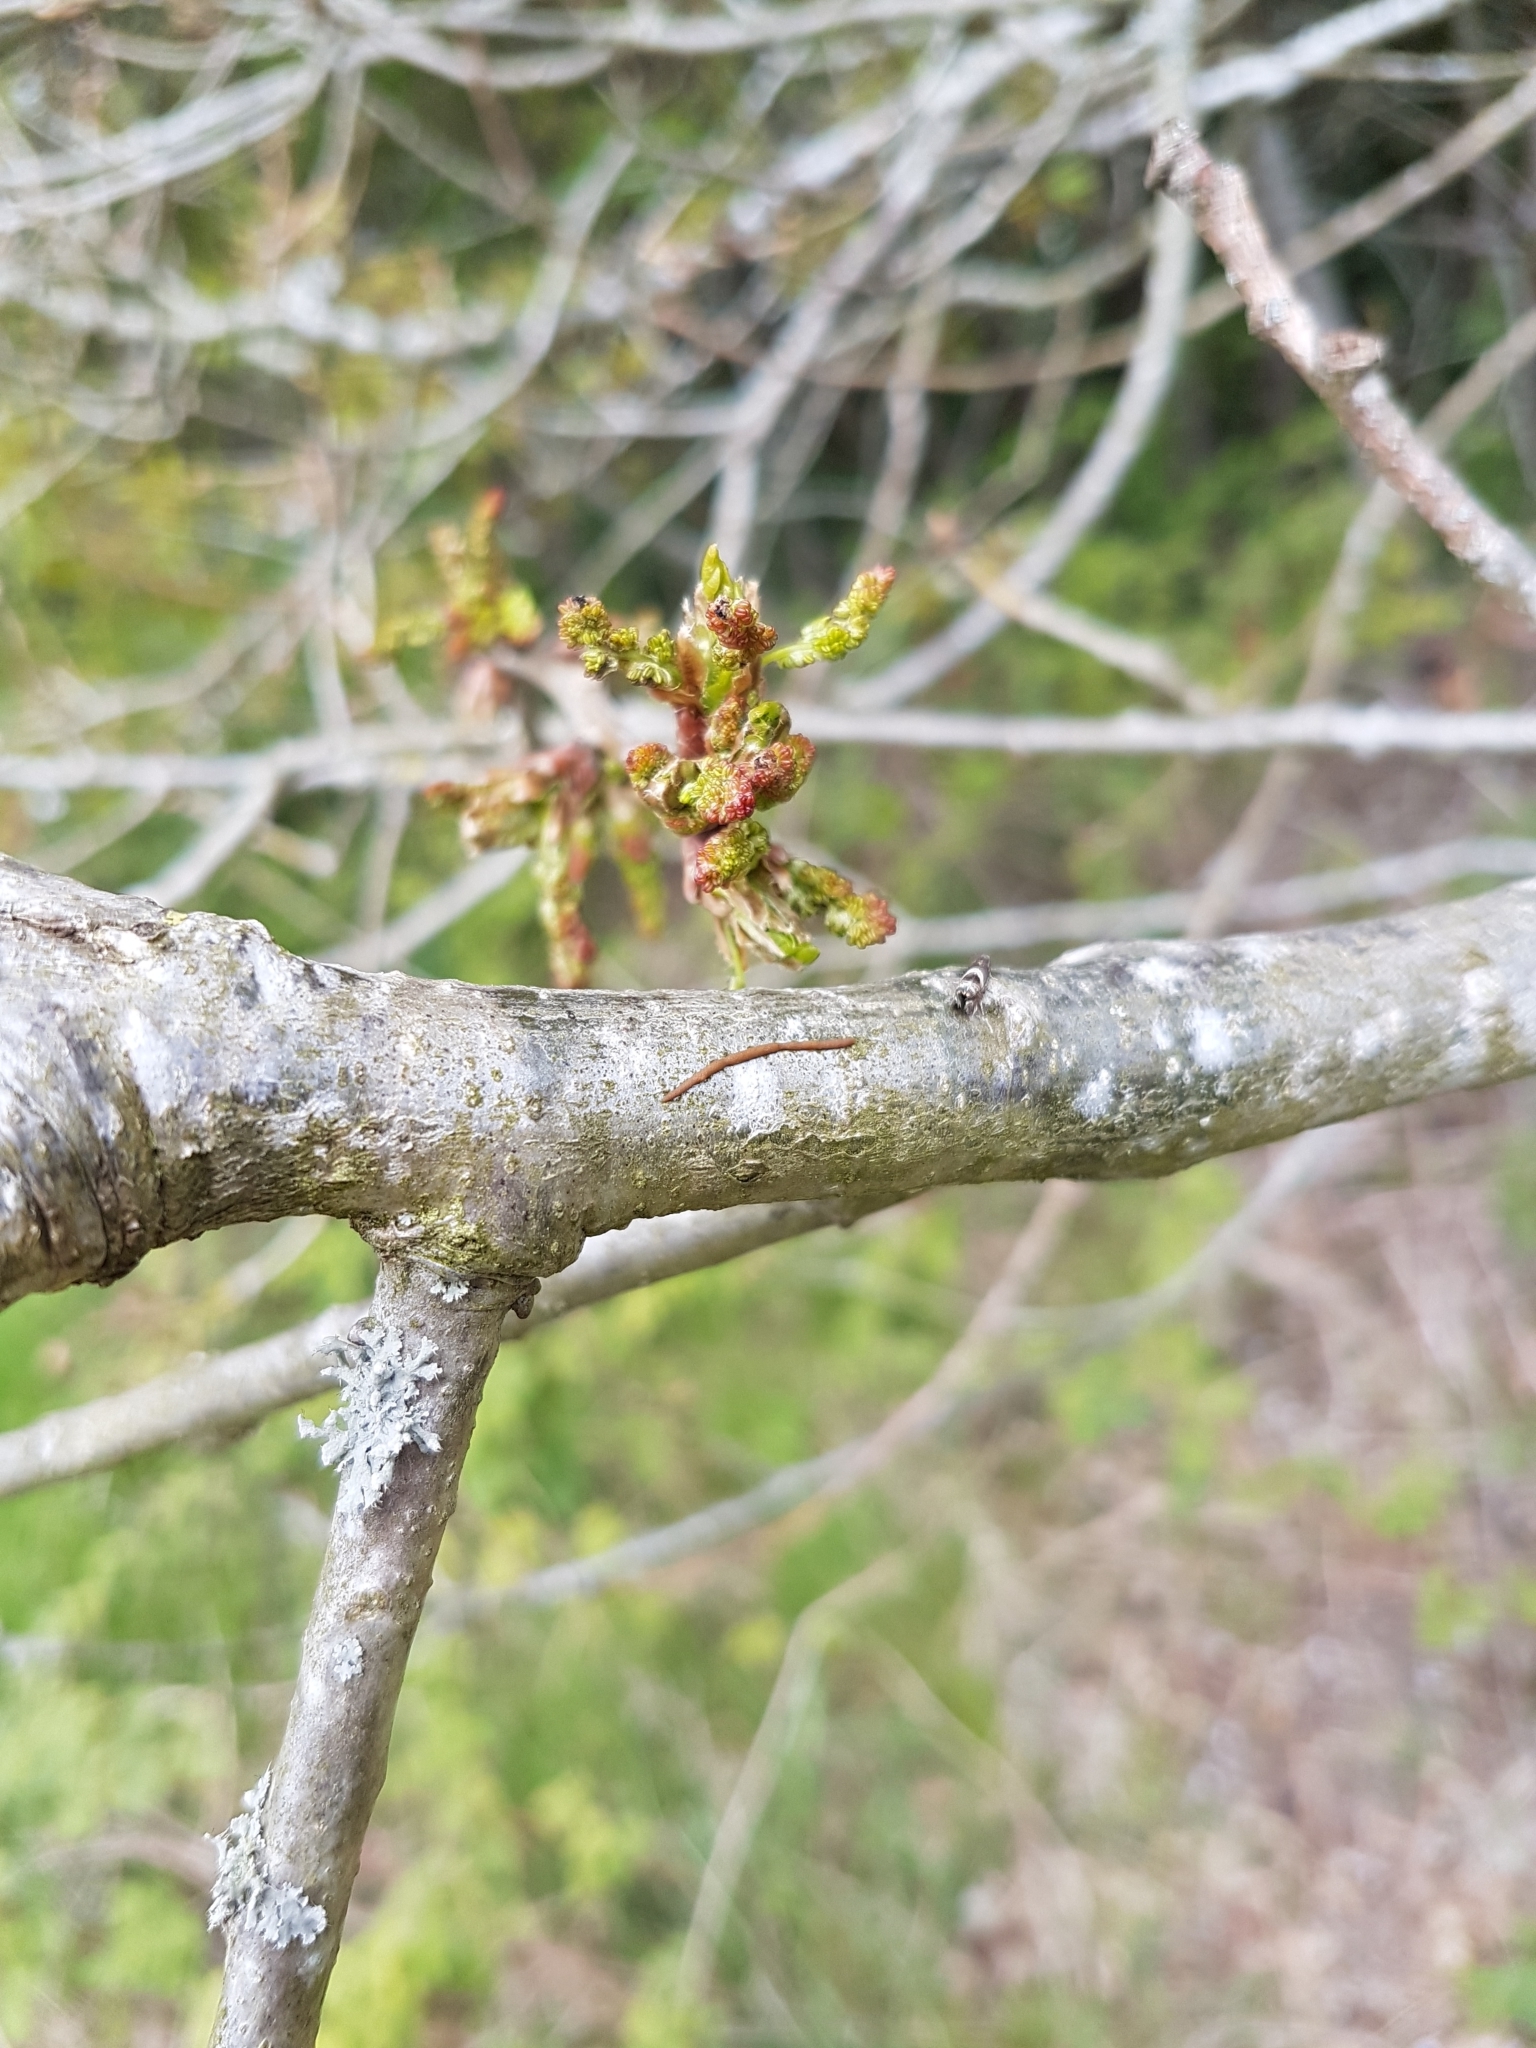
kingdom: Plantae
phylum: Tracheophyta
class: Magnoliopsida
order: Fagales
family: Fagaceae
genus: Quercus
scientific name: Quercus robur
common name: Pedunculate oak
